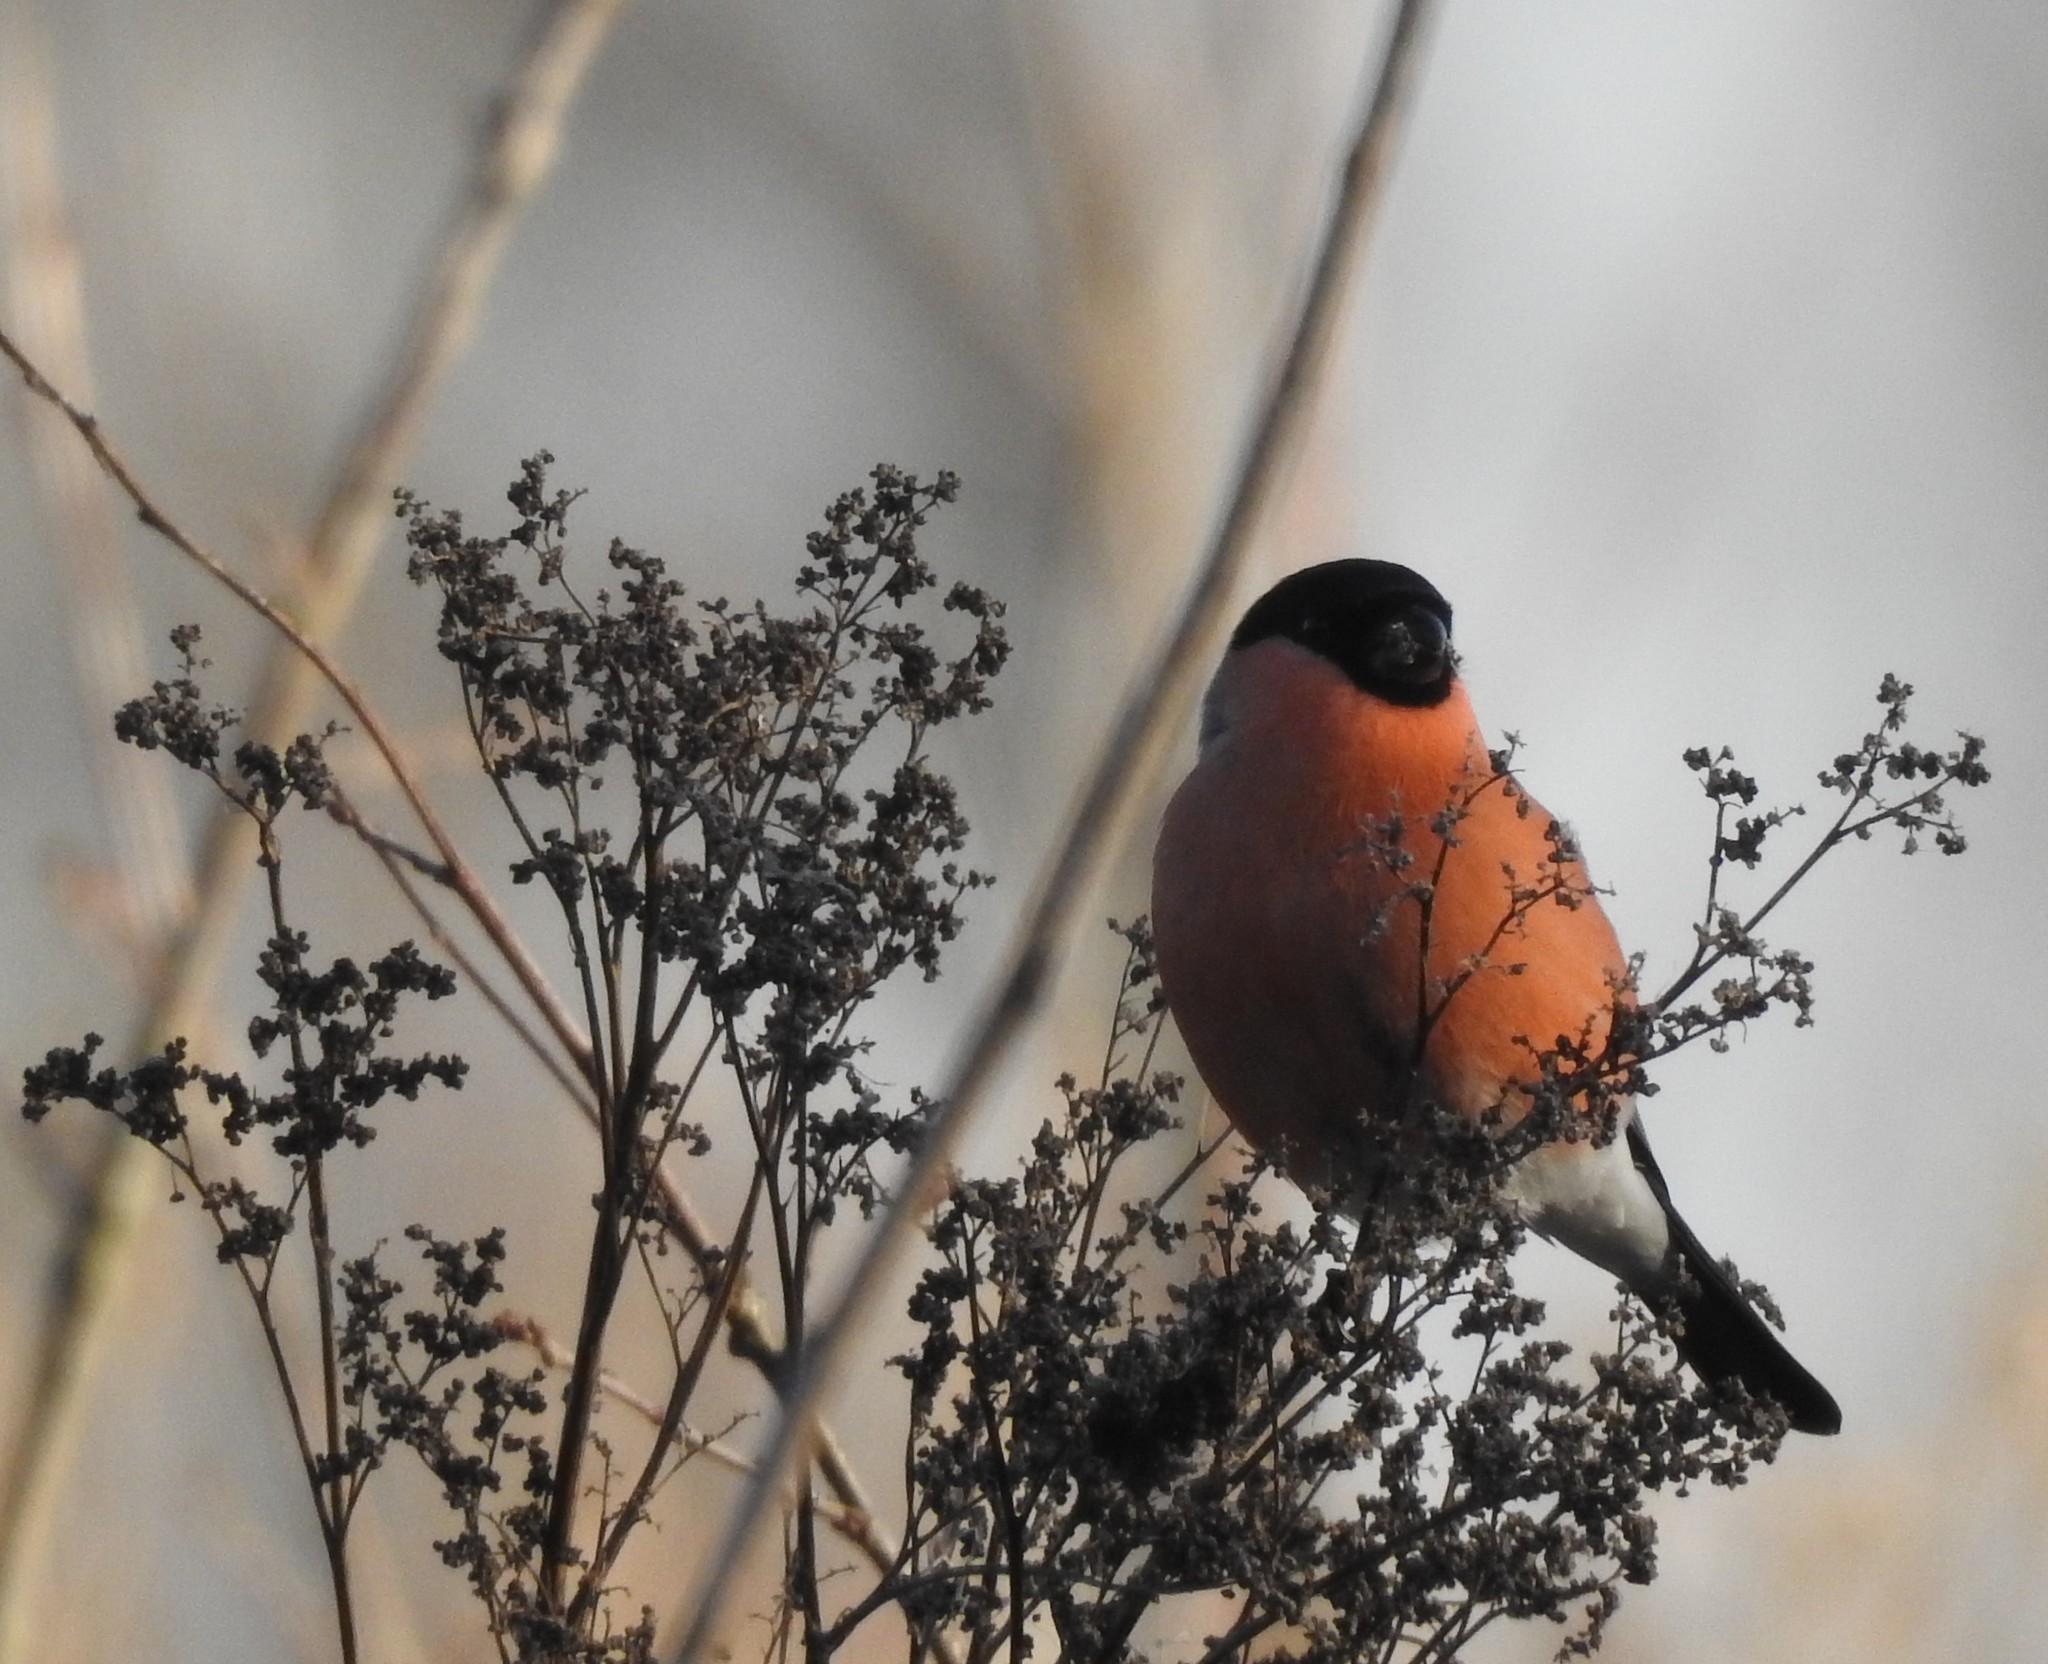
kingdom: Animalia
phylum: Chordata
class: Aves
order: Passeriformes
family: Fringillidae
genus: Pyrrhula
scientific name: Pyrrhula pyrrhula
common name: Eurasian bullfinch
